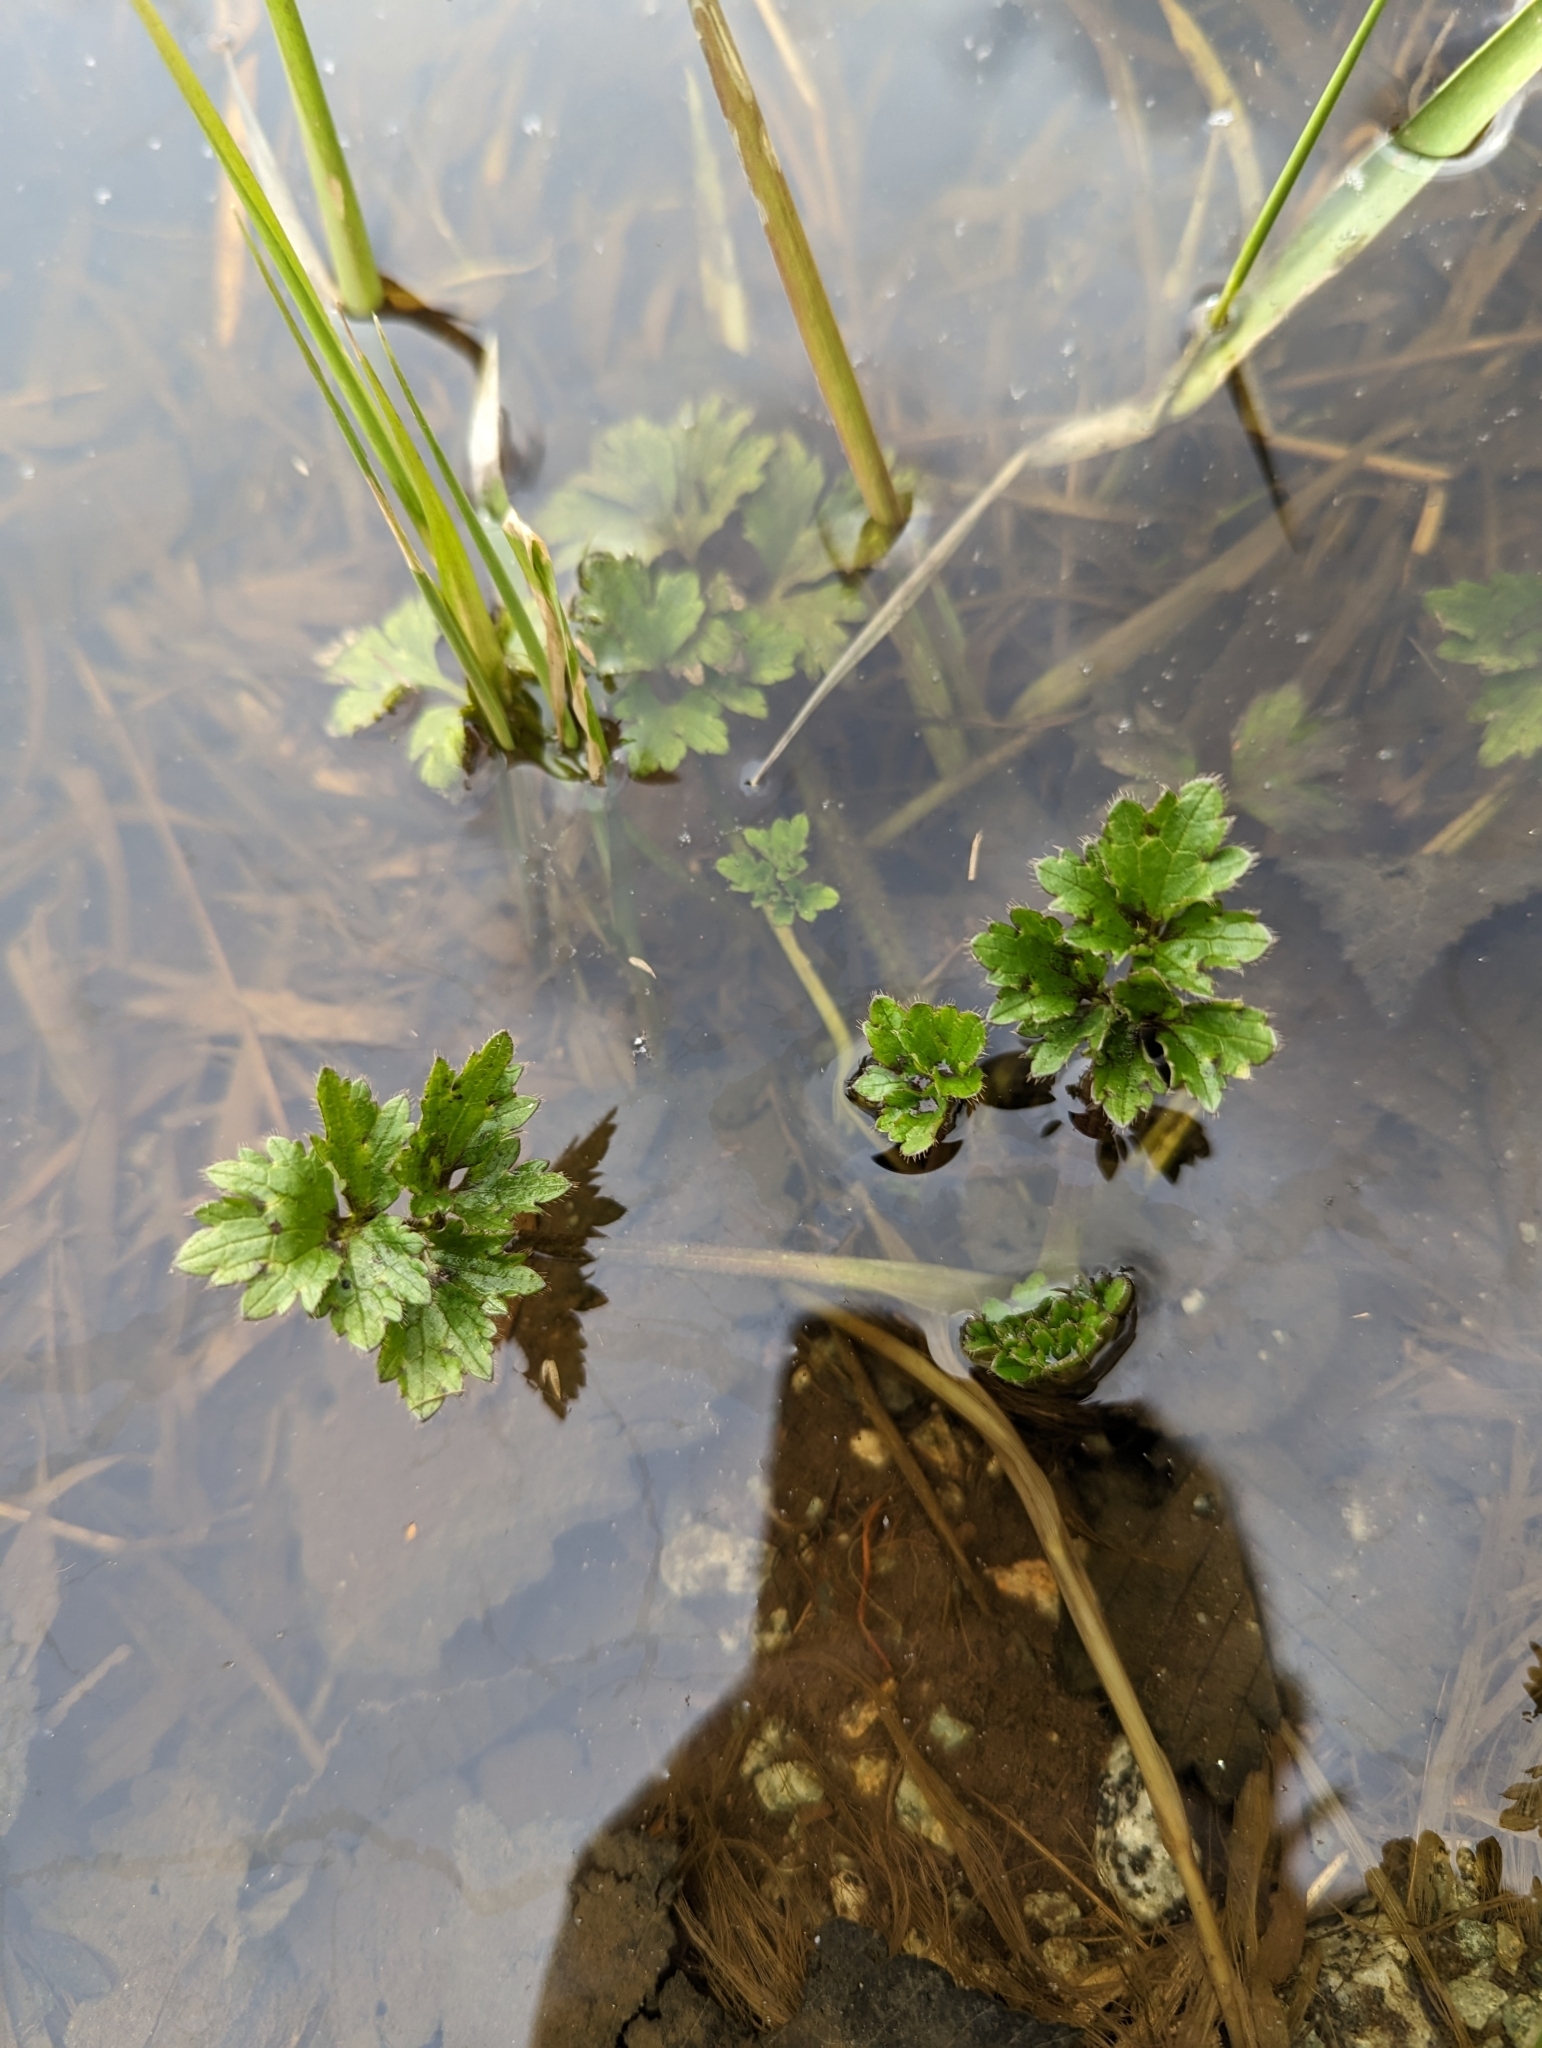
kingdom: Plantae
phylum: Tracheophyta
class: Magnoliopsida
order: Ranunculales
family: Ranunculaceae
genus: Ranunculus
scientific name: Ranunculus repens
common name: Creeping buttercup
